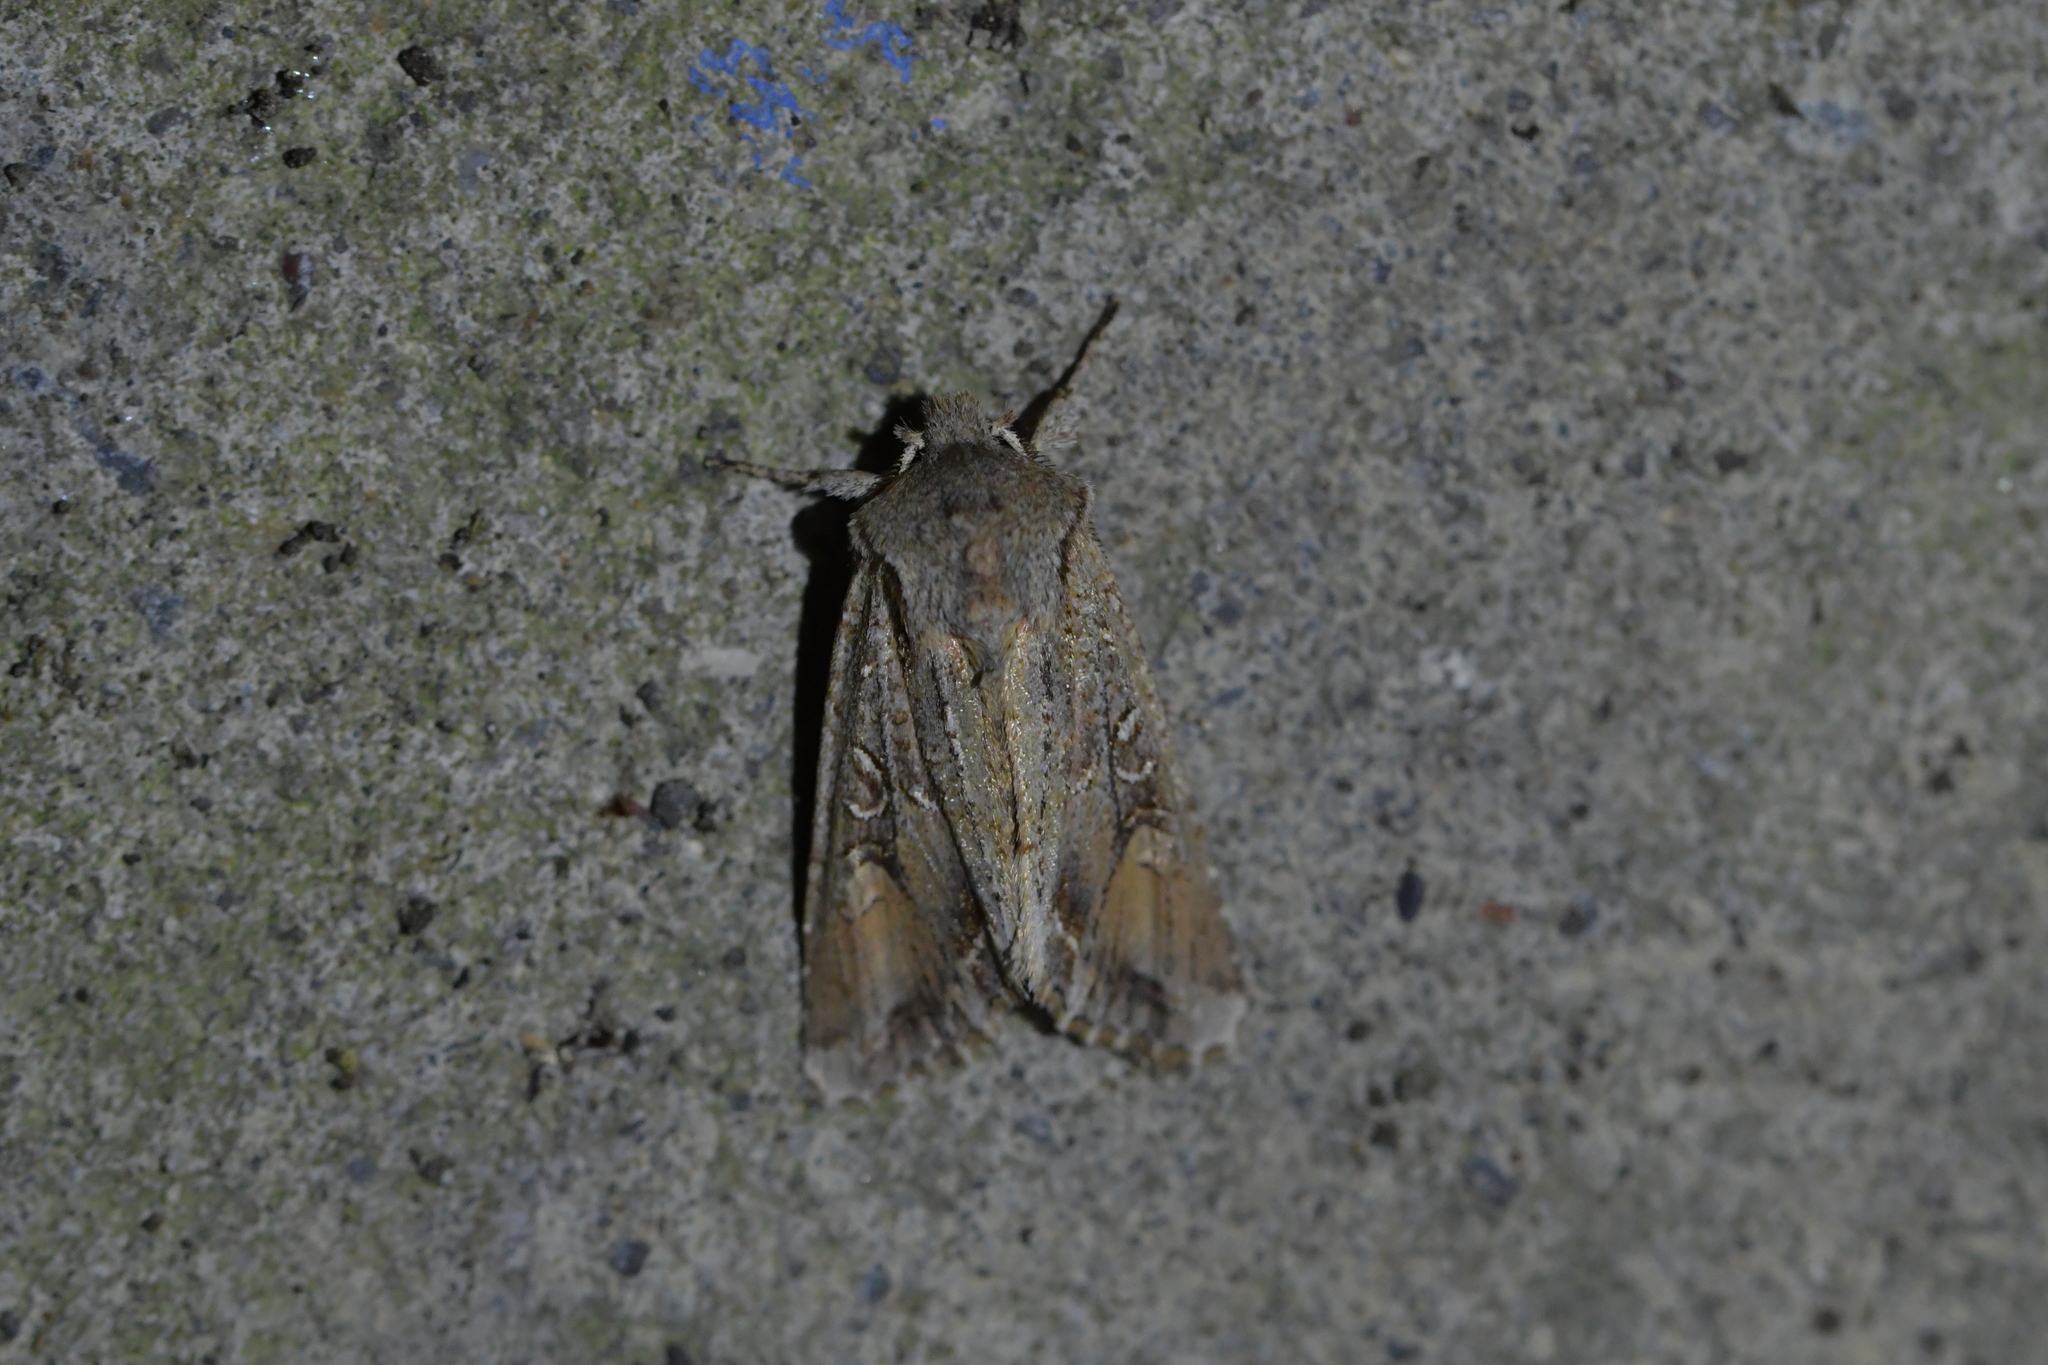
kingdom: Animalia
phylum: Arthropoda
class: Insecta
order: Lepidoptera
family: Noctuidae
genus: Ichneutica
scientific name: Ichneutica
